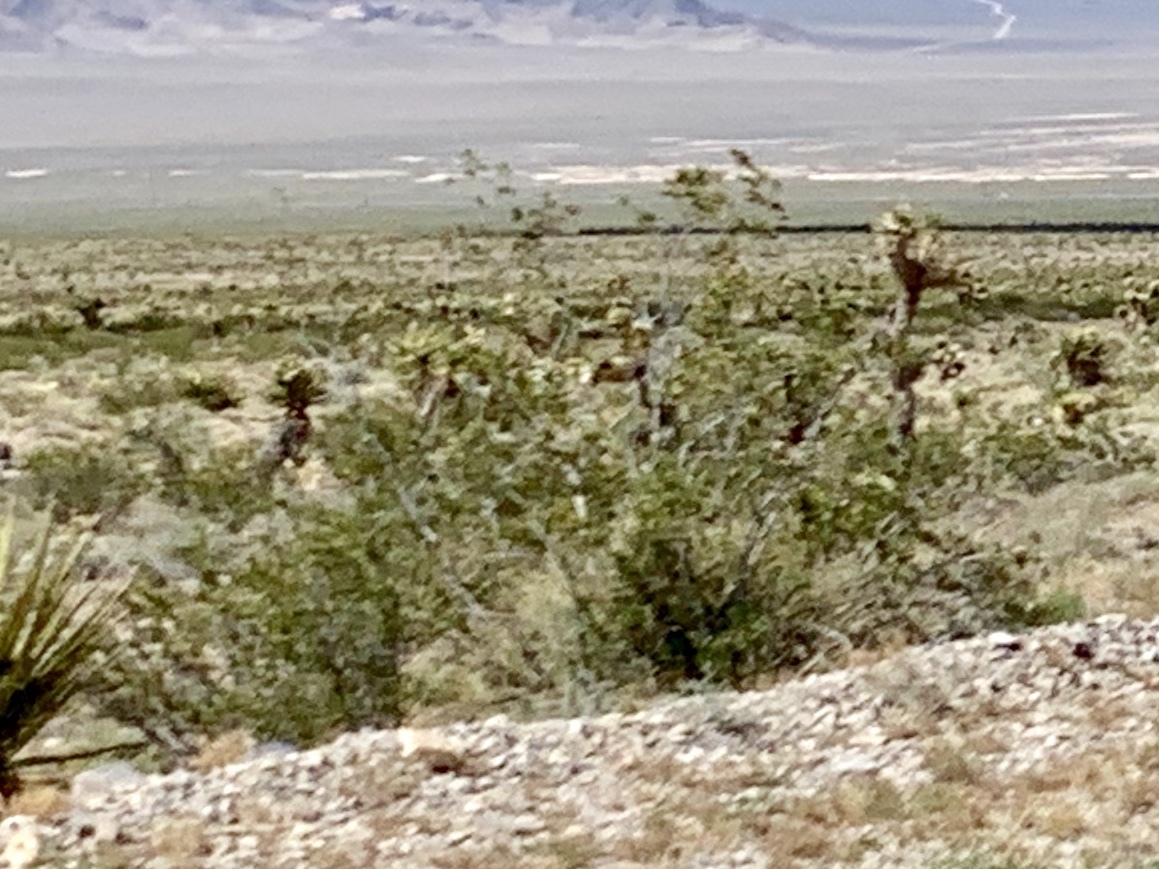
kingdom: Plantae
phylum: Tracheophyta
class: Magnoliopsida
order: Zygophyllales
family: Zygophyllaceae
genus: Larrea
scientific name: Larrea tridentata
